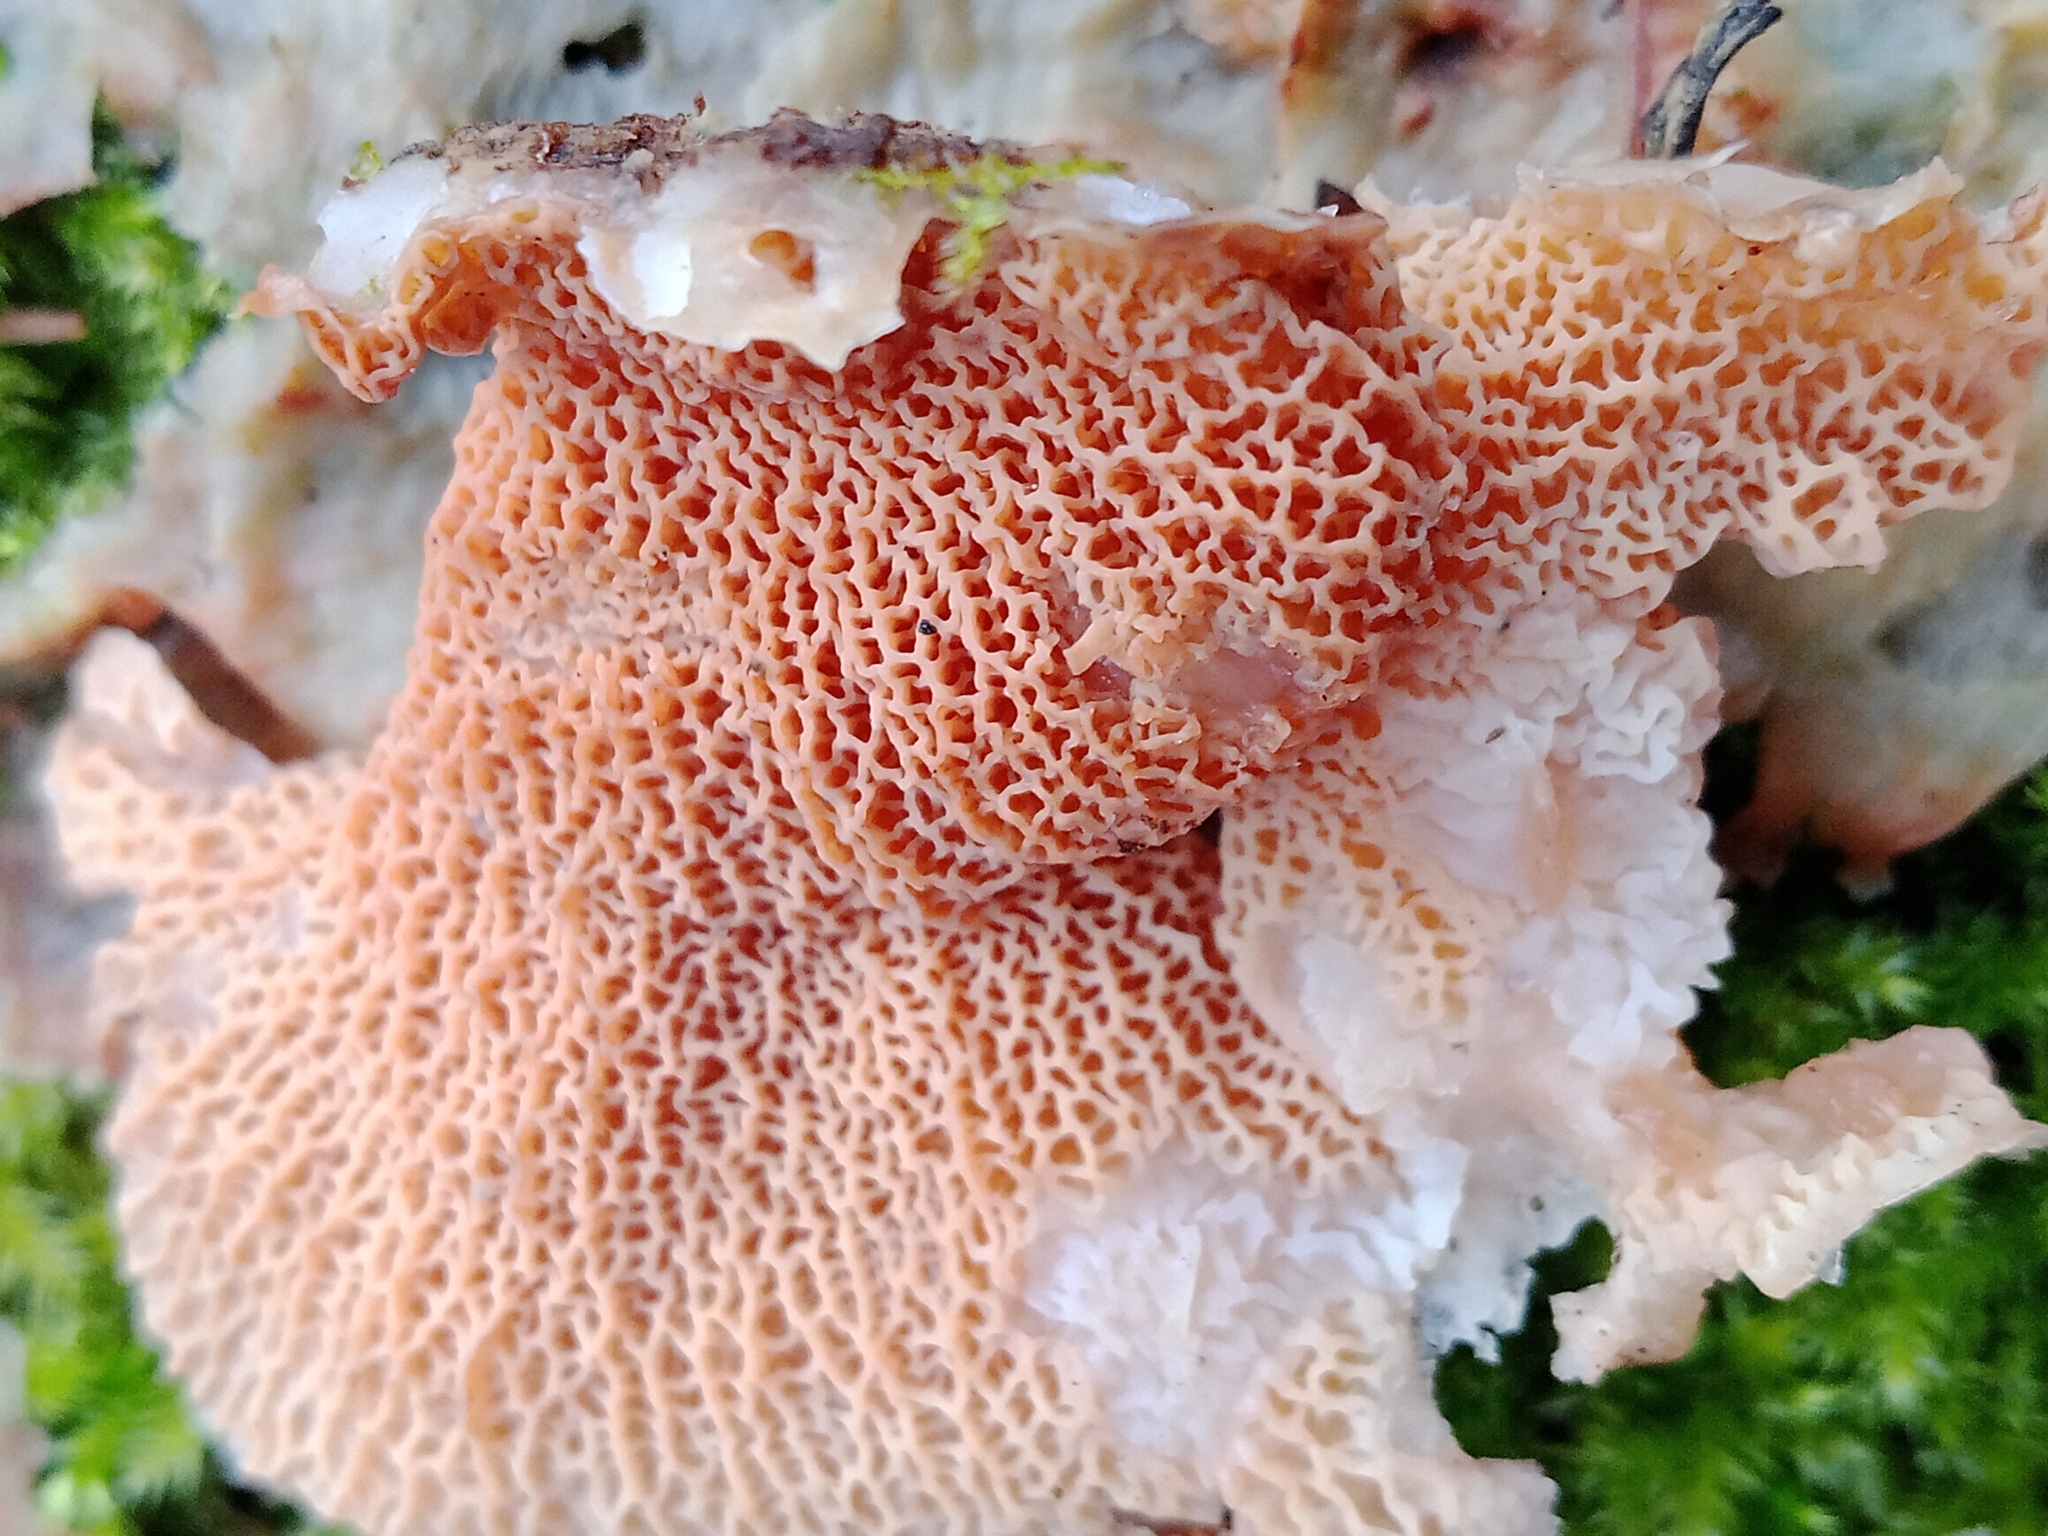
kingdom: Fungi
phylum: Basidiomycota
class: Agaricomycetes
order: Polyporales
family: Meruliaceae
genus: Phlebia
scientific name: Phlebia tremellosa
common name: Jelly rot
